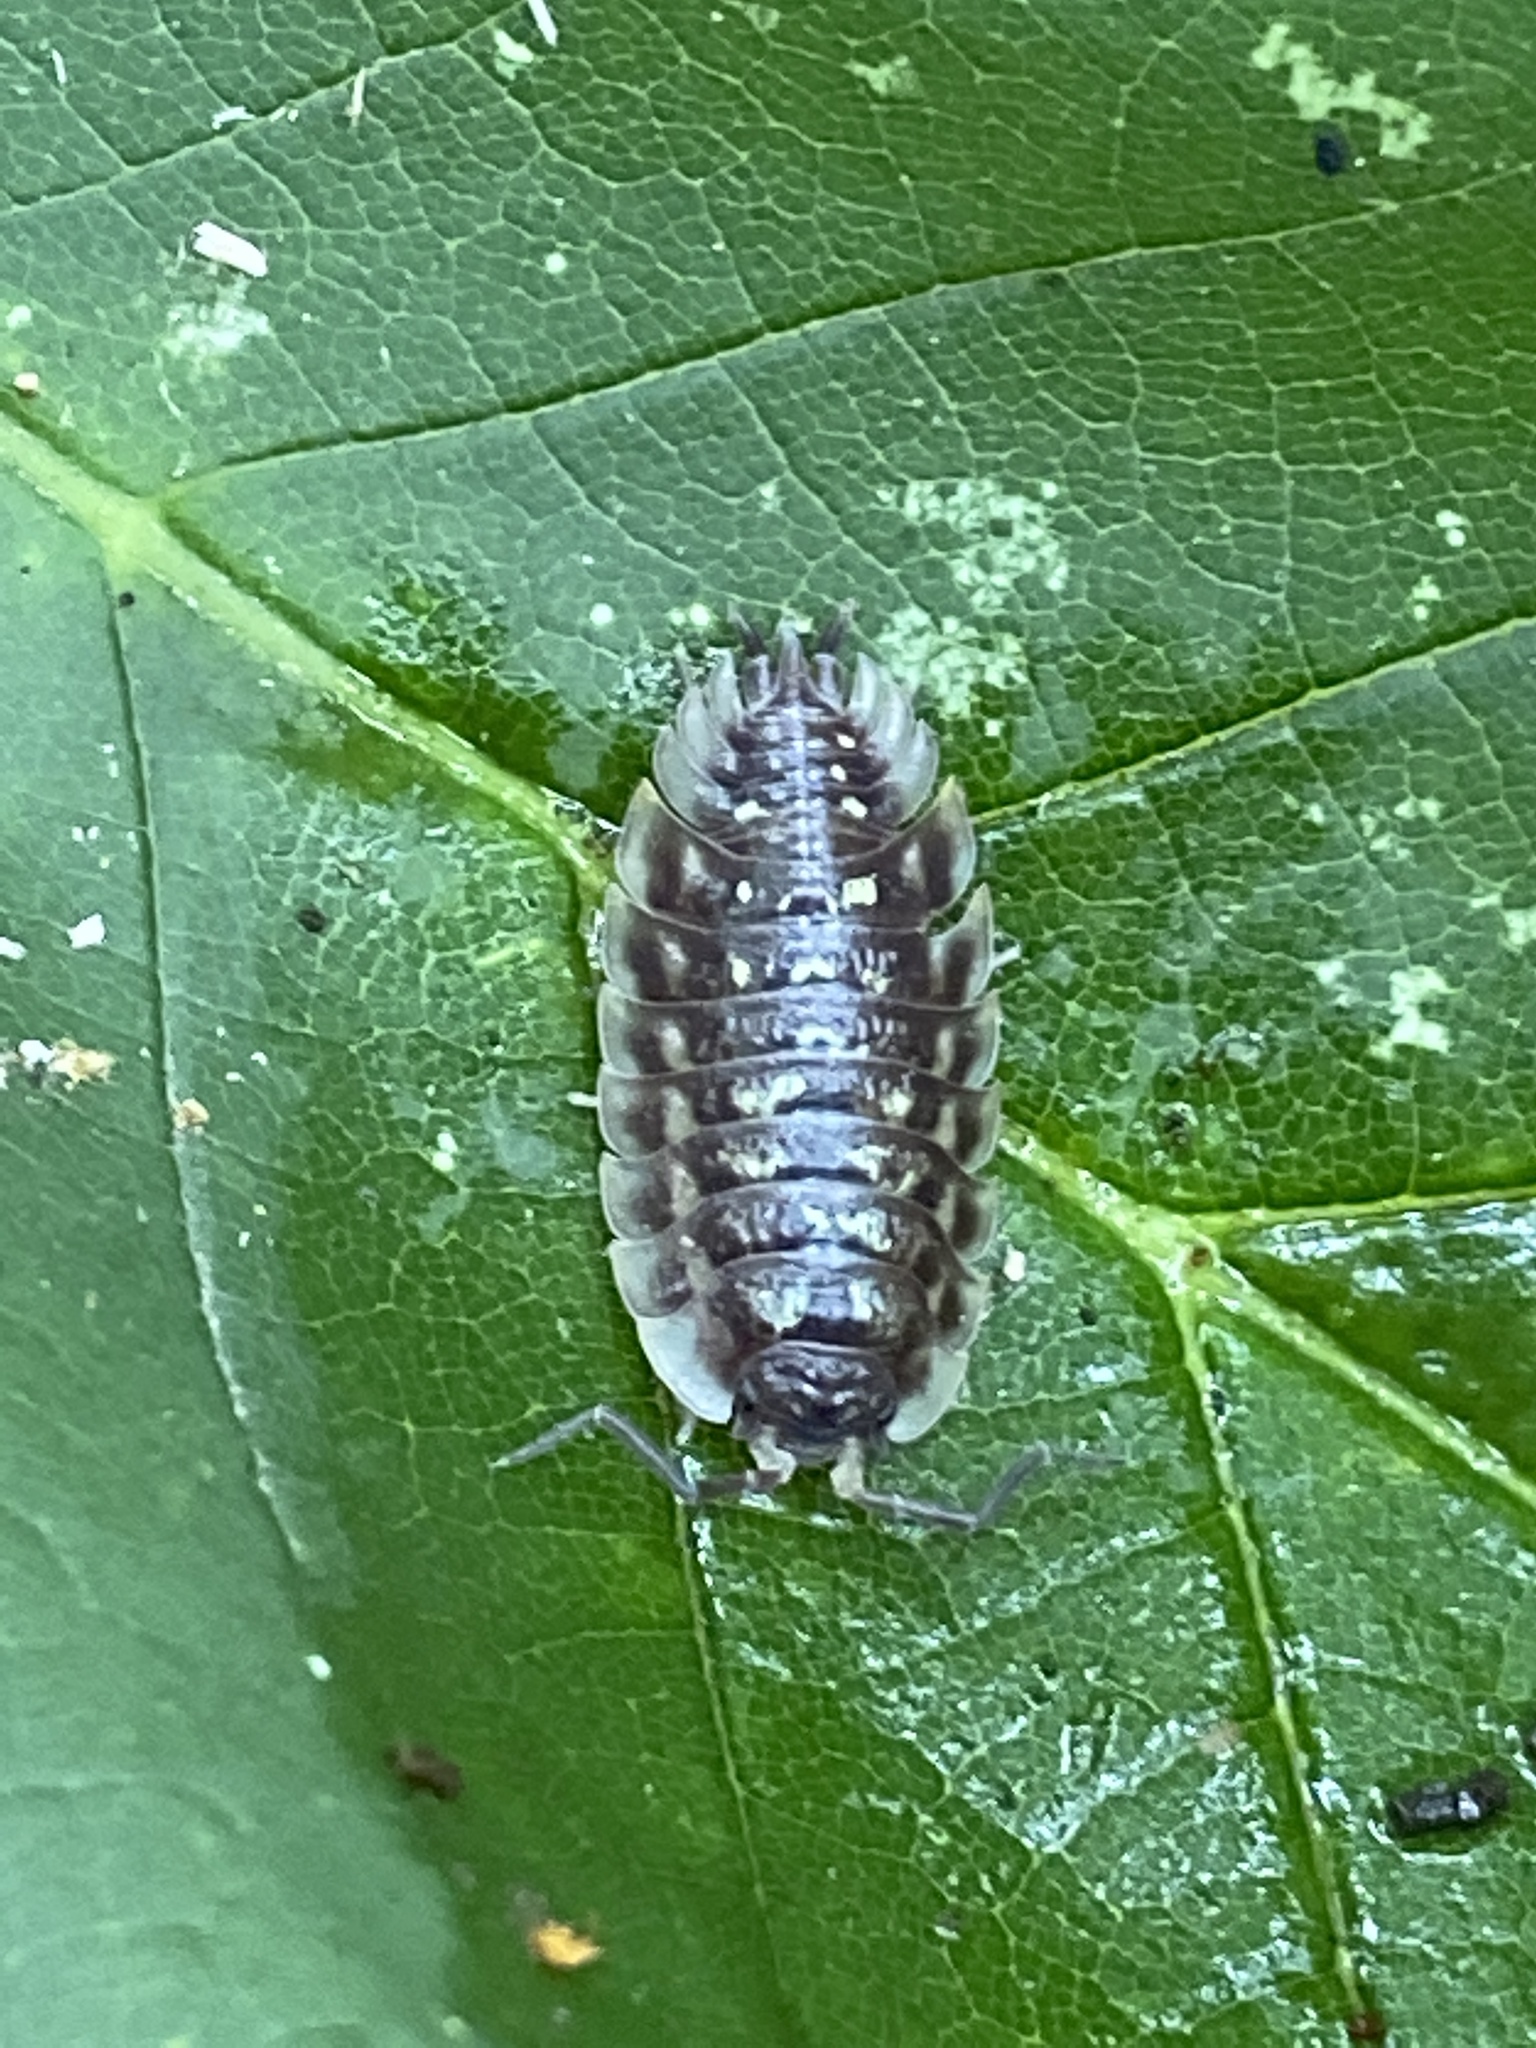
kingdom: Animalia
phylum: Arthropoda
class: Malacostraca
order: Isopoda
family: Oniscidae
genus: Oniscus
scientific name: Oniscus asellus
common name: Common shiny woodlouse
